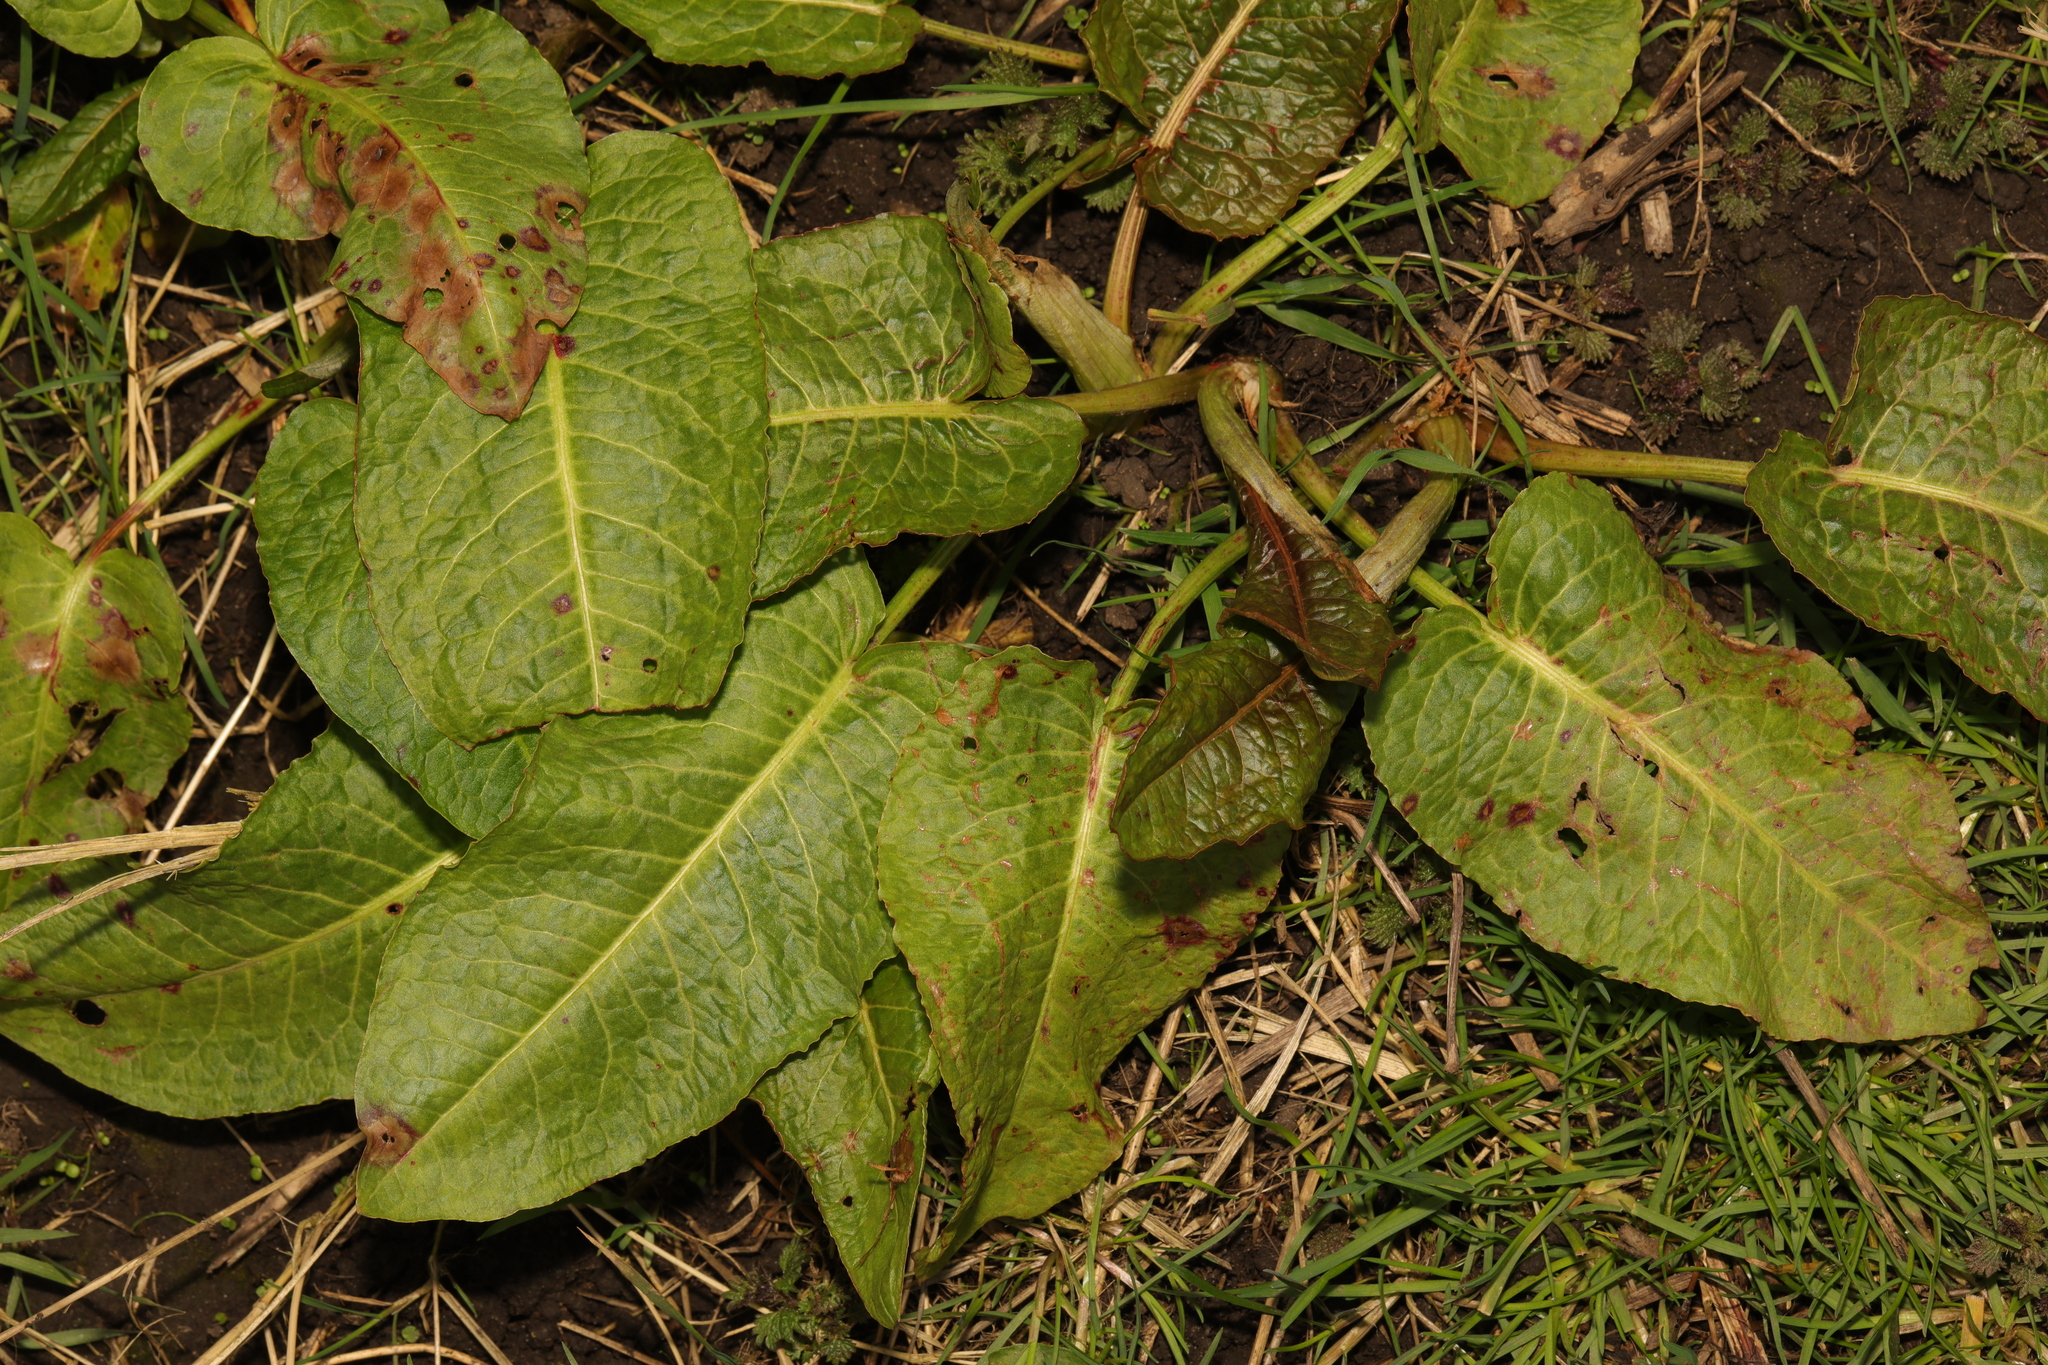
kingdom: Plantae
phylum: Tracheophyta
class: Magnoliopsida
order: Caryophyllales
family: Polygonaceae
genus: Rumex
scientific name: Rumex obtusifolius
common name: Bitter dock
